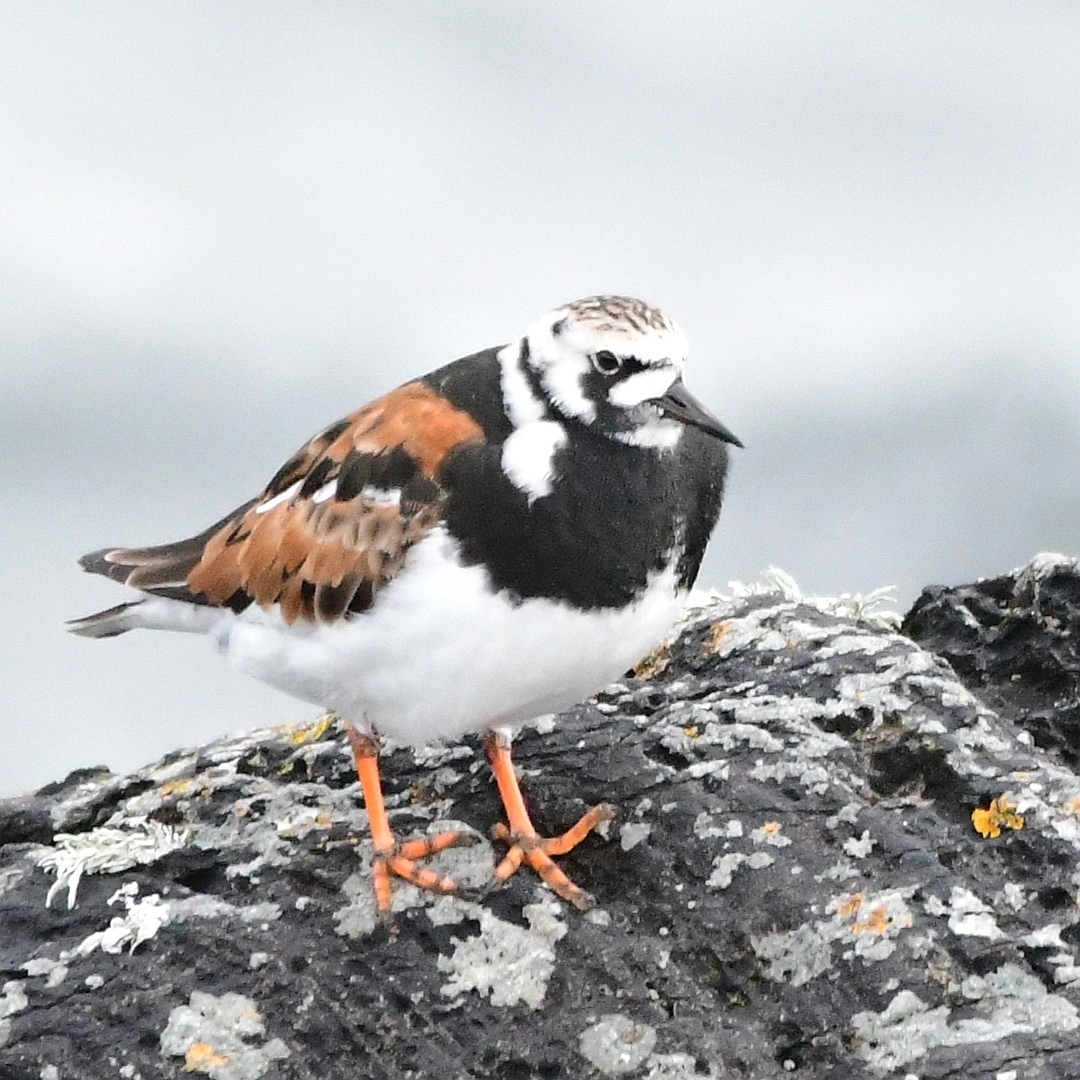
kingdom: Animalia
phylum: Chordata
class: Aves
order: Charadriiformes
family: Scolopacidae
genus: Arenaria
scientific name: Arenaria interpres
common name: Ruddy turnstone
